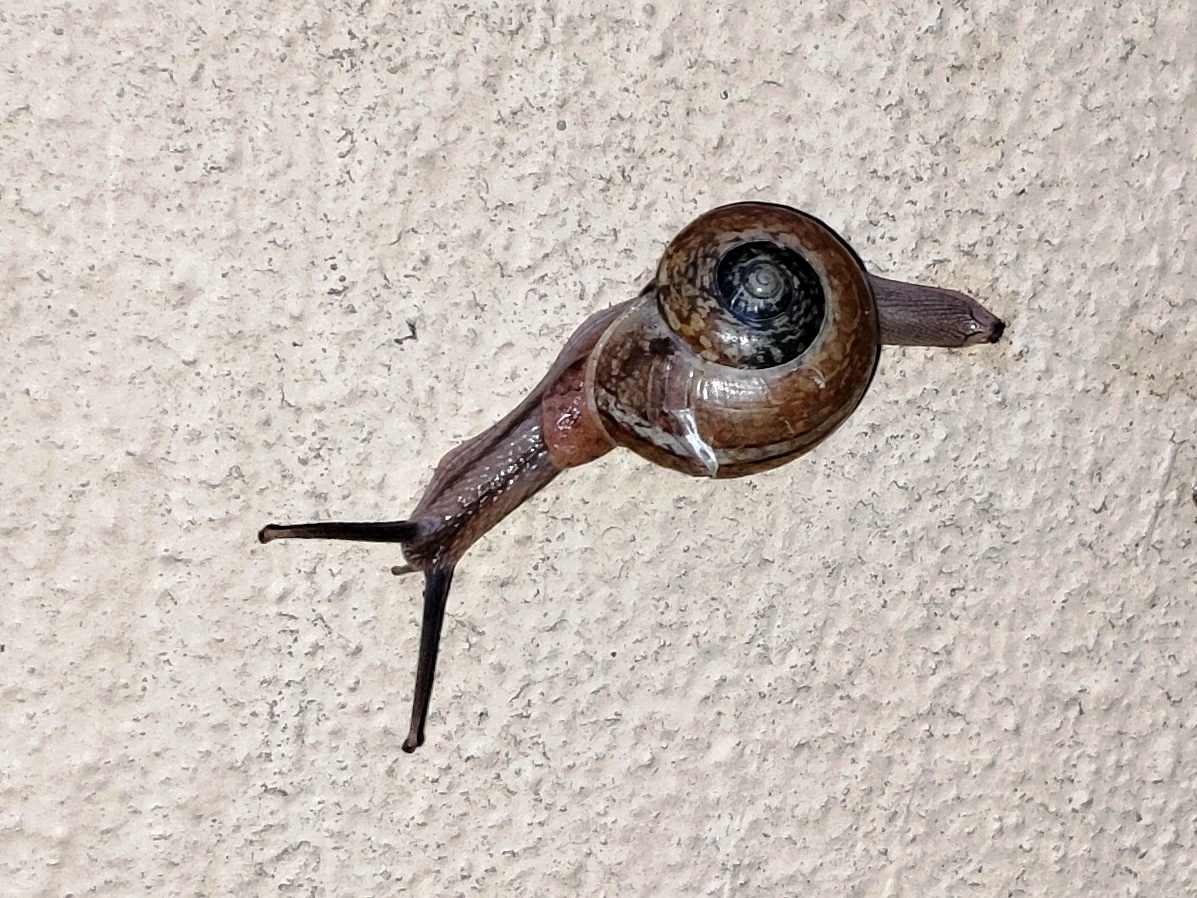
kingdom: Animalia
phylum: Mollusca
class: Gastropoda
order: Stylommatophora
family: Ariophantidae
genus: Ariophanta
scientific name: Ariophanta exilis
